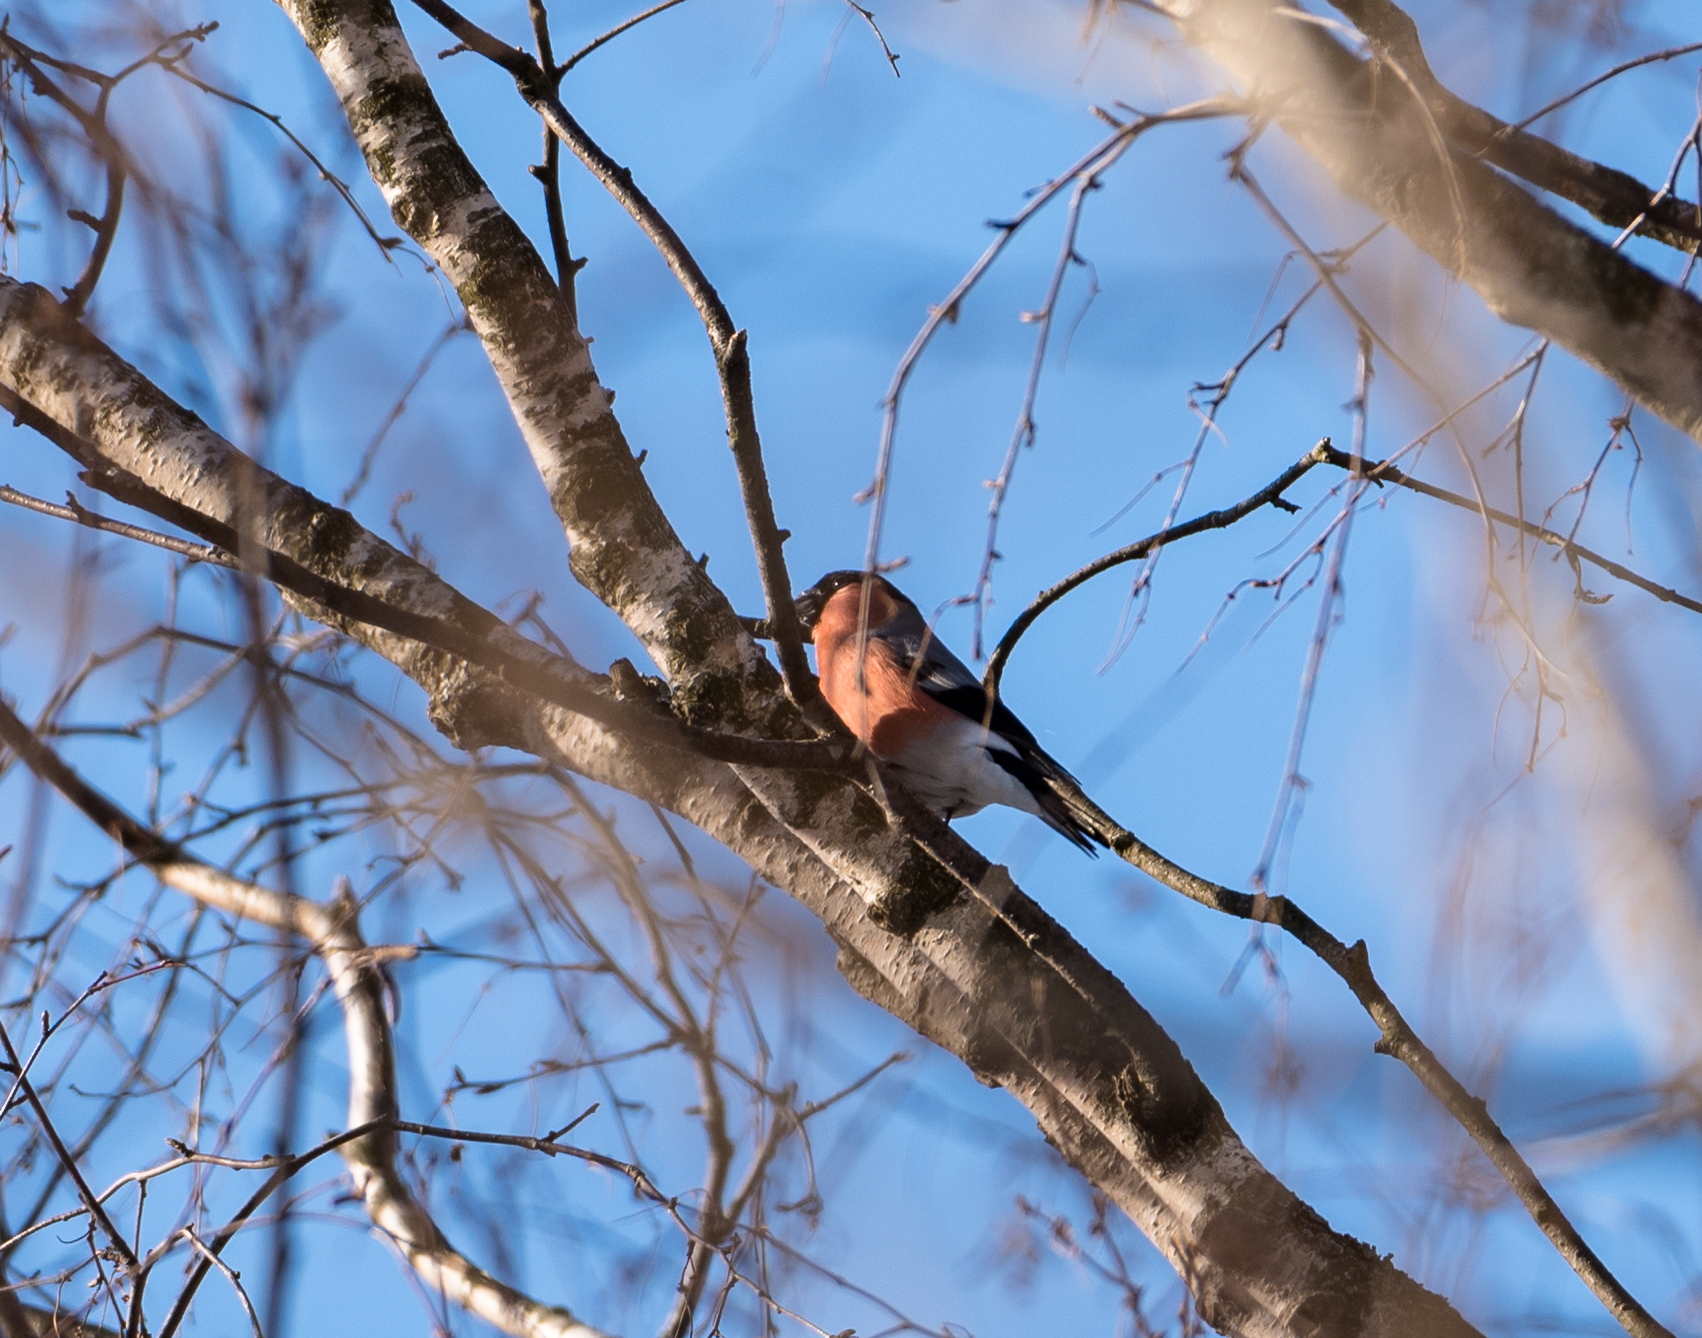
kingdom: Animalia
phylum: Chordata
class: Aves
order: Passeriformes
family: Fringillidae
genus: Pyrrhula
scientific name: Pyrrhula pyrrhula
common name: Eurasian bullfinch
